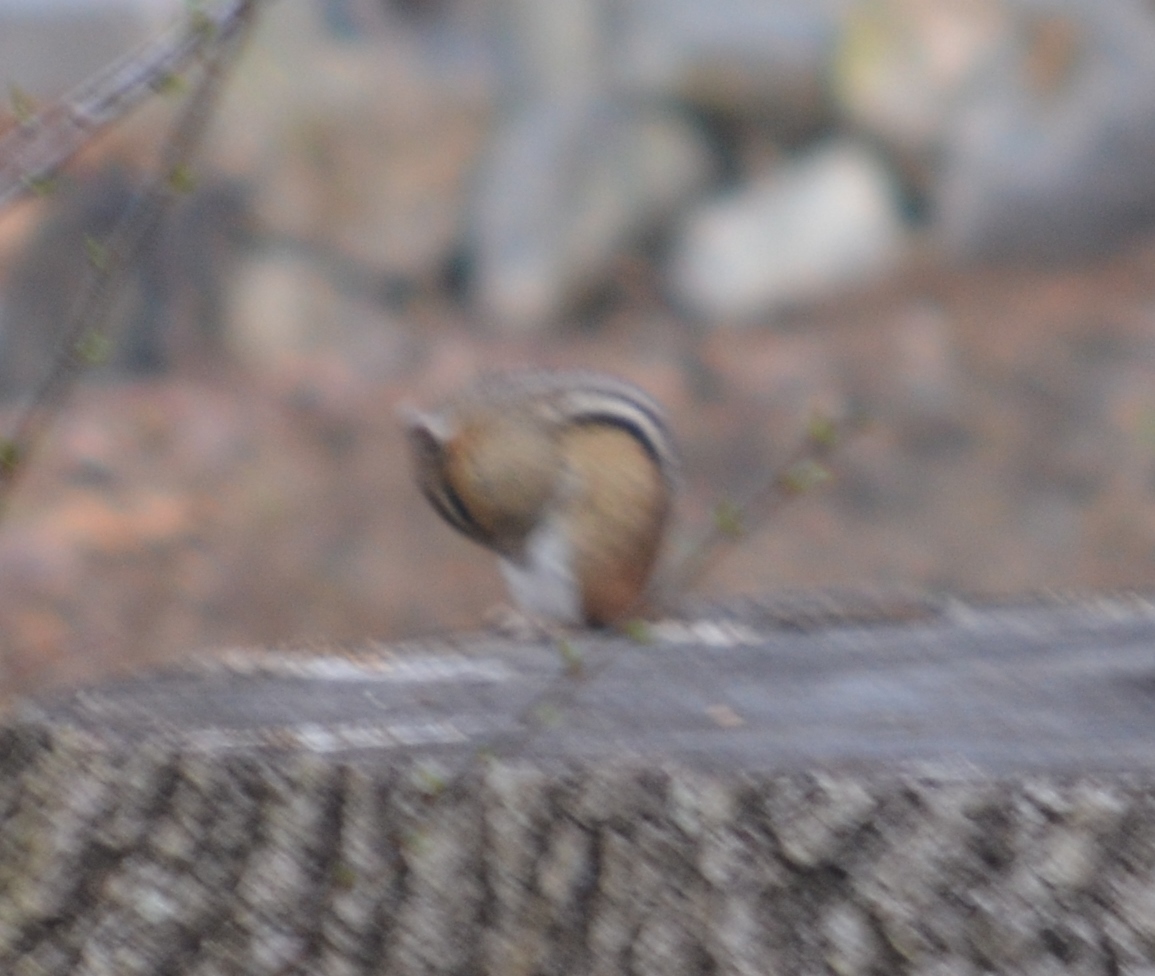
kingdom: Animalia
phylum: Chordata
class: Mammalia
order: Rodentia
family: Sciuridae
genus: Tamias
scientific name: Tamias striatus
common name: Eastern chipmunk
